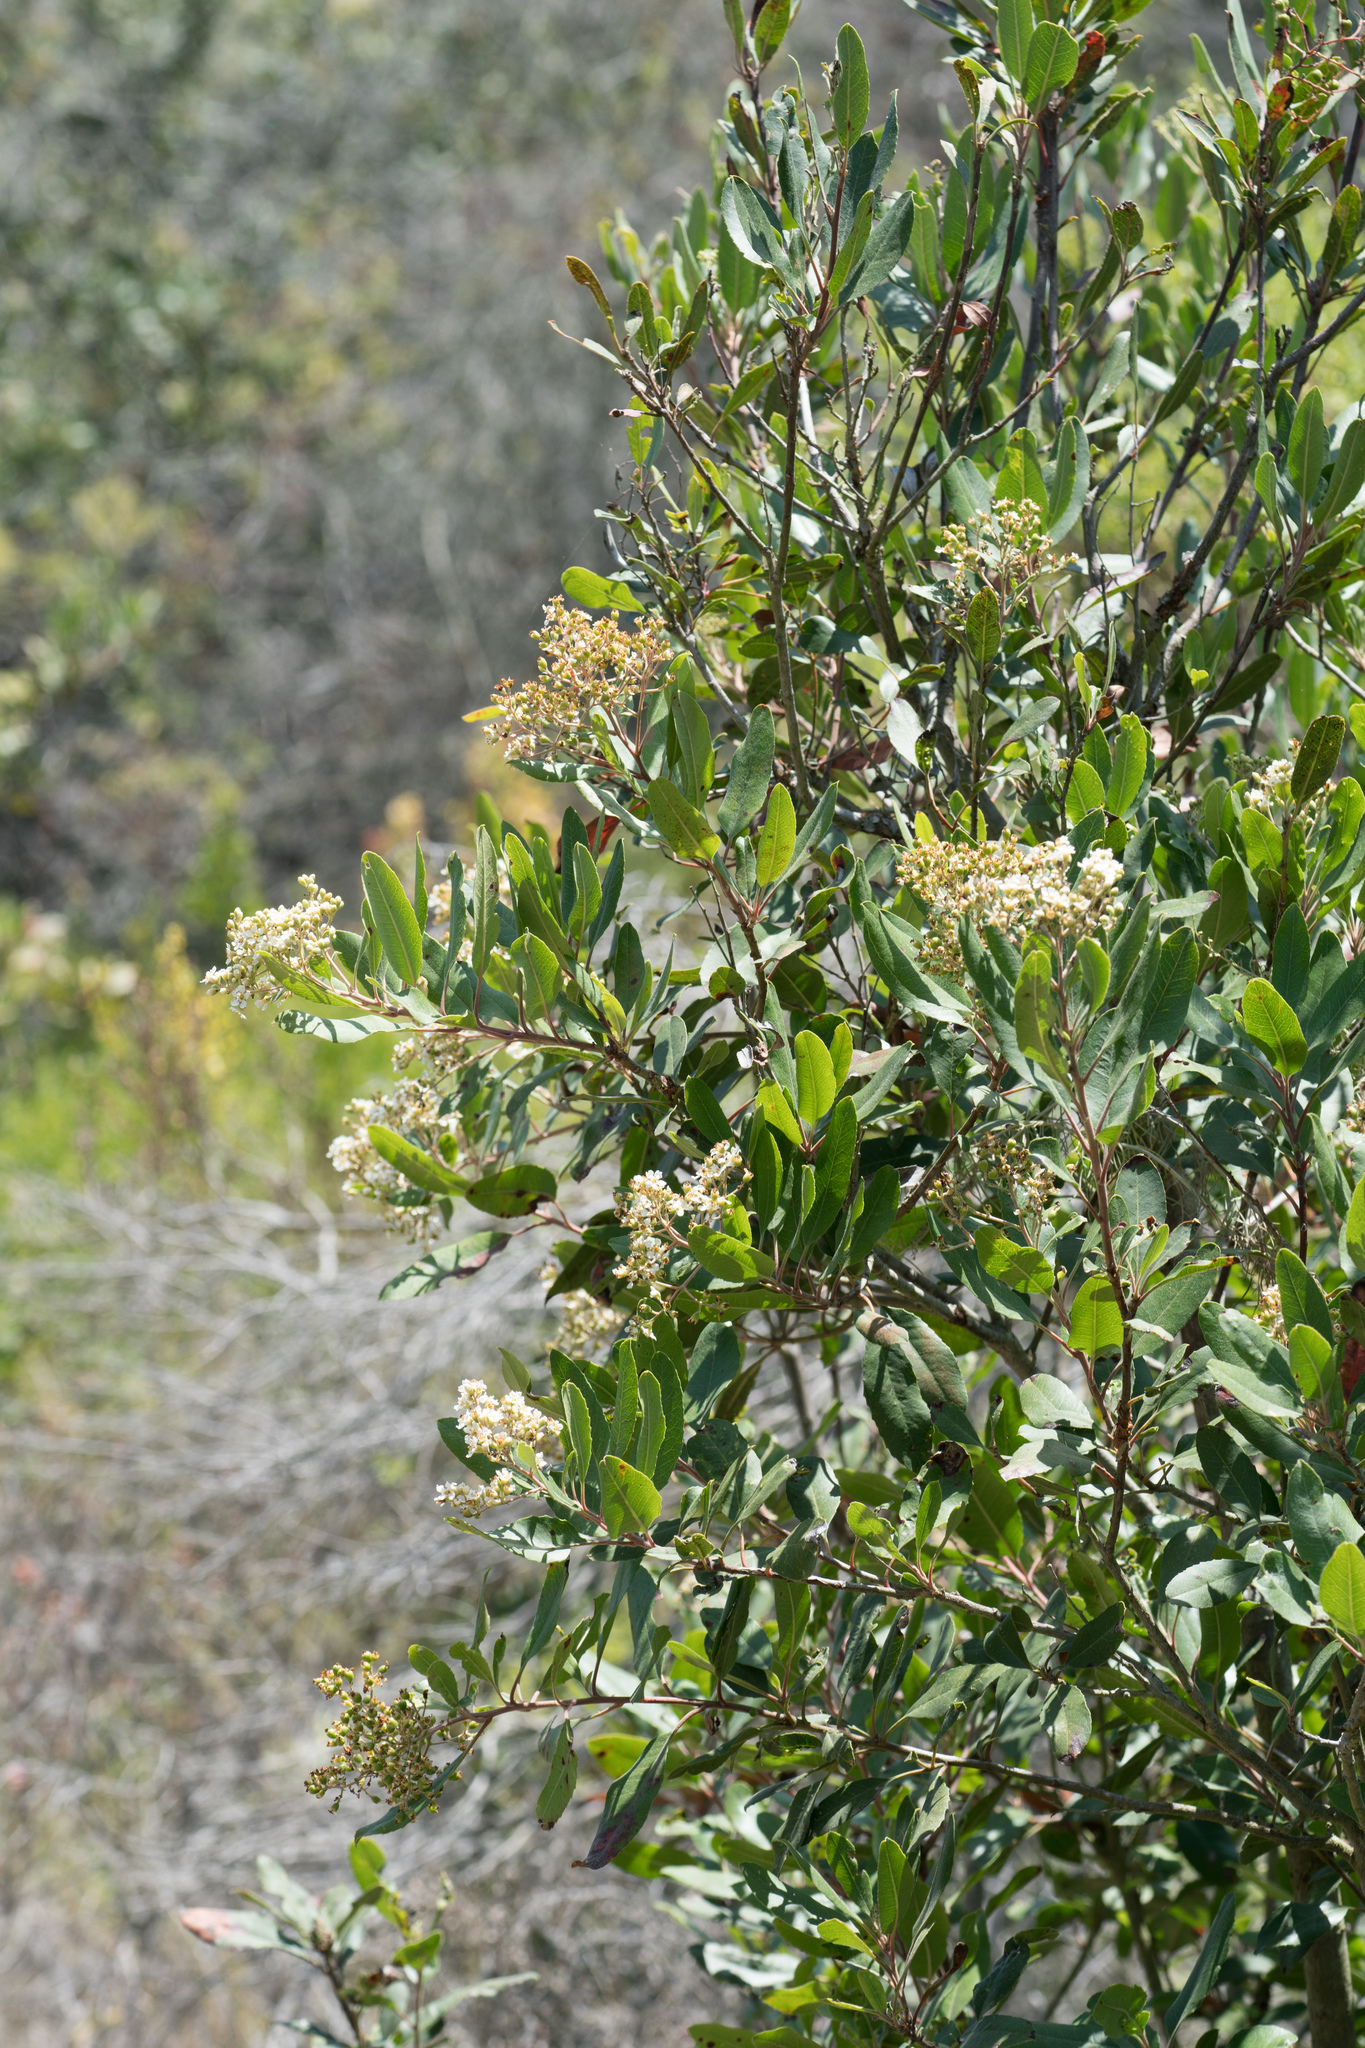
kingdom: Plantae
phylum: Tracheophyta
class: Magnoliopsida
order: Rosales
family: Rosaceae
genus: Heteromeles
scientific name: Heteromeles arbutifolia
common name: California-holly
